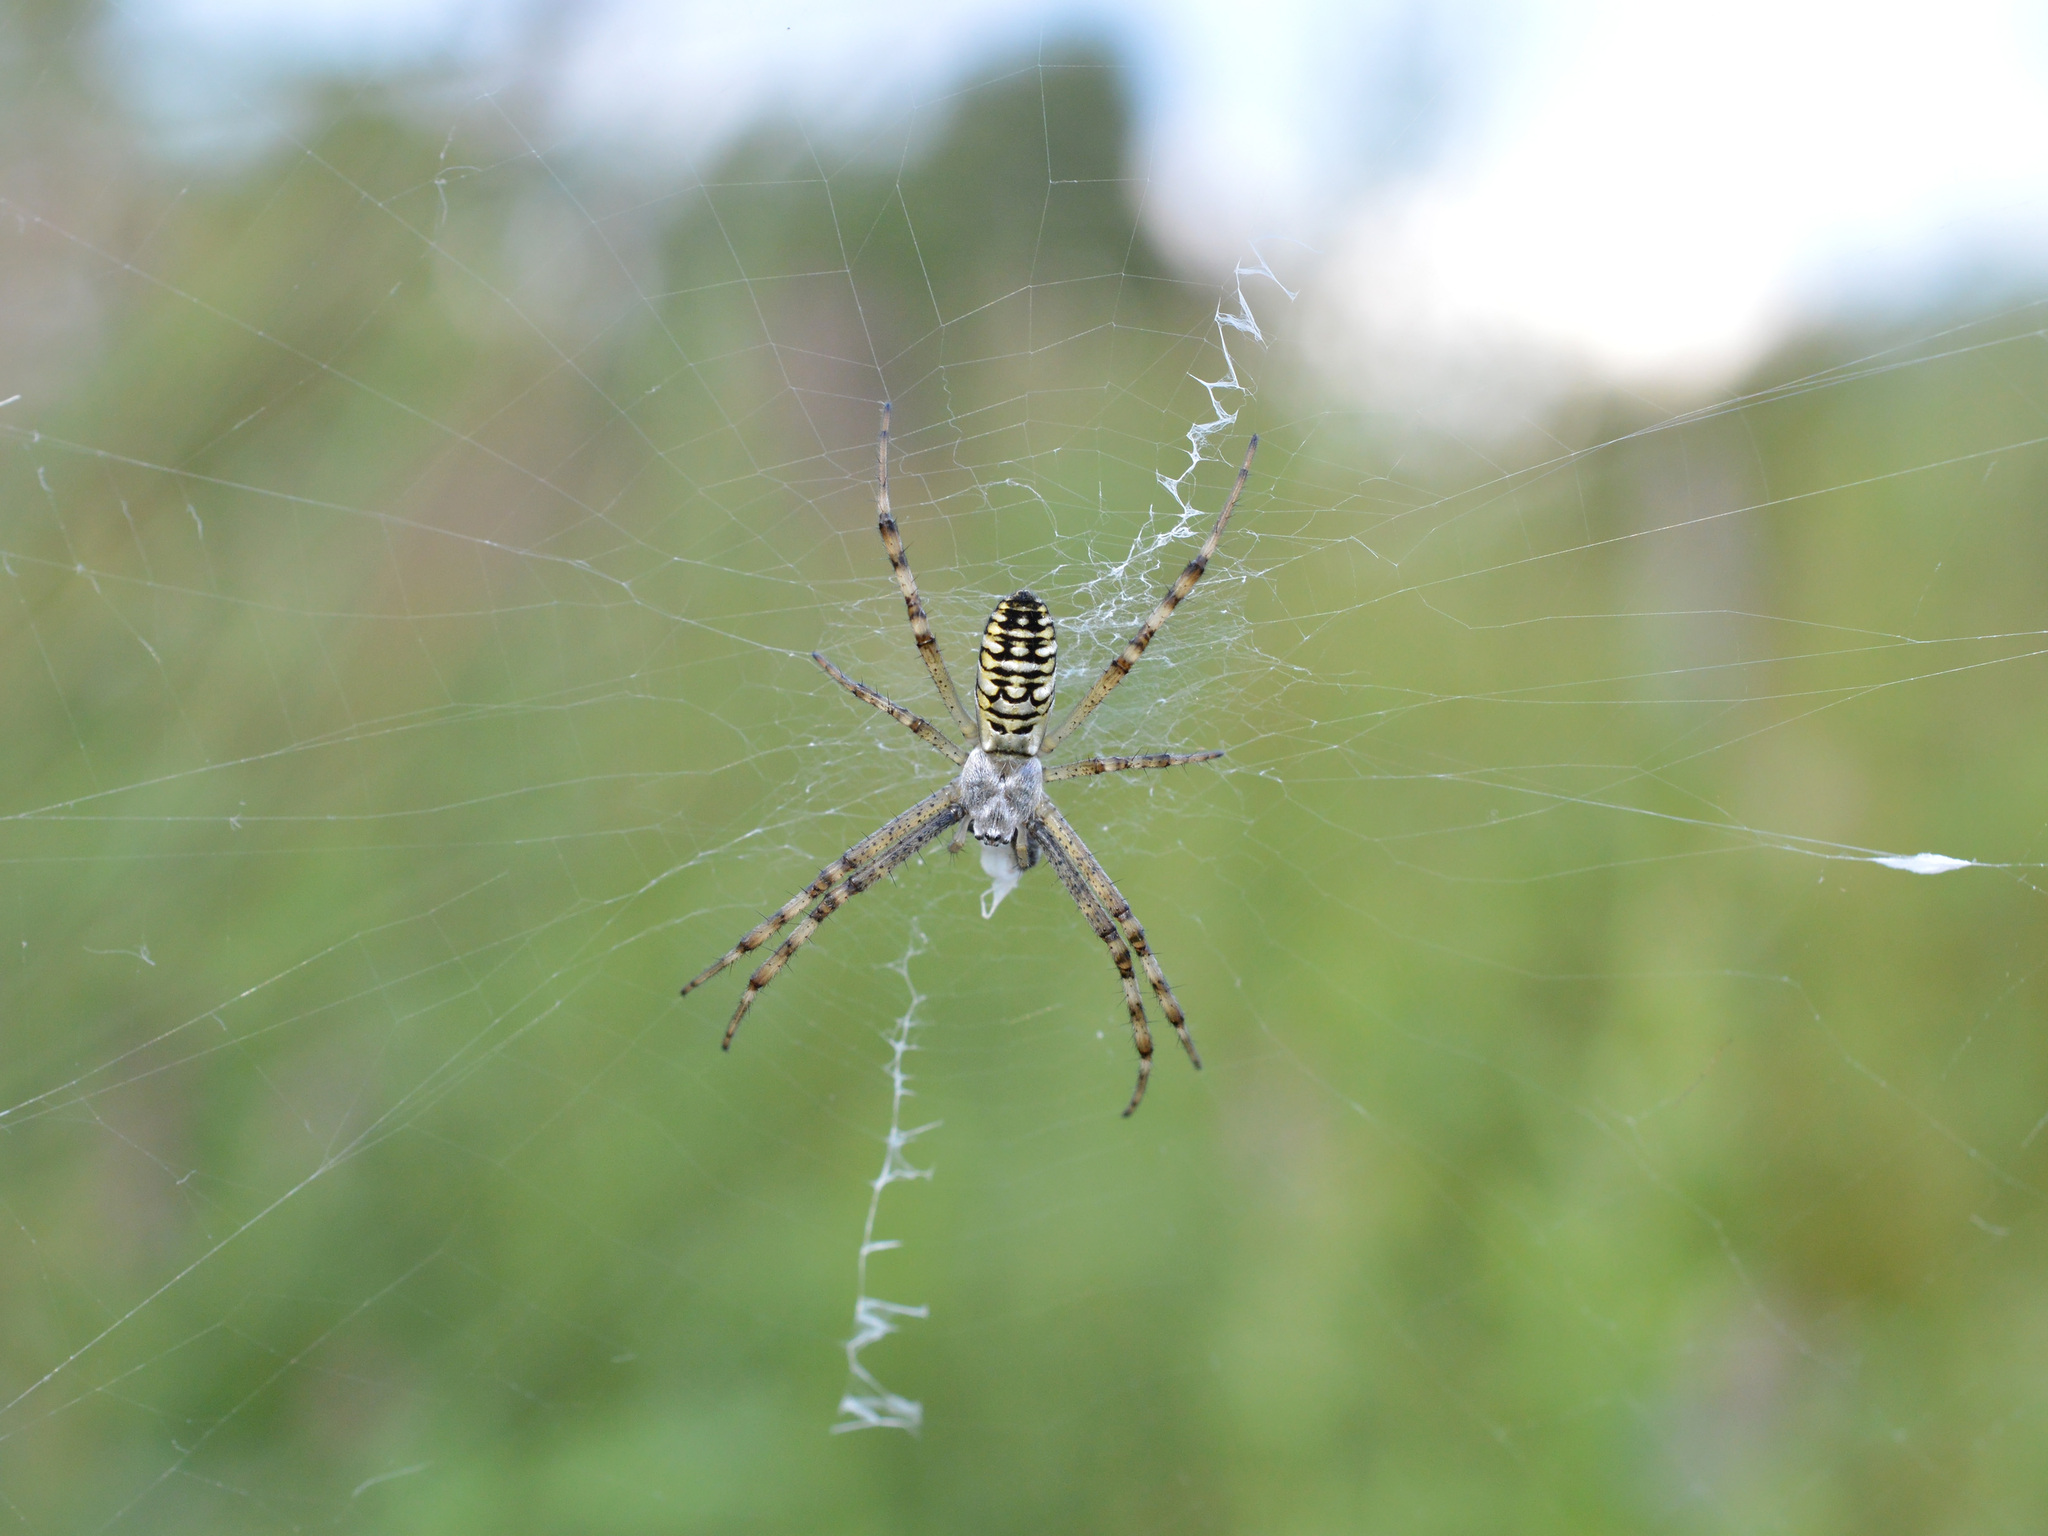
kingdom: Animalia
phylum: Arthropoda
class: Arachnida
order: Araneae
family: Araneidae
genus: Argiope
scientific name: Argiope bruennichi
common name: Wasp spider
